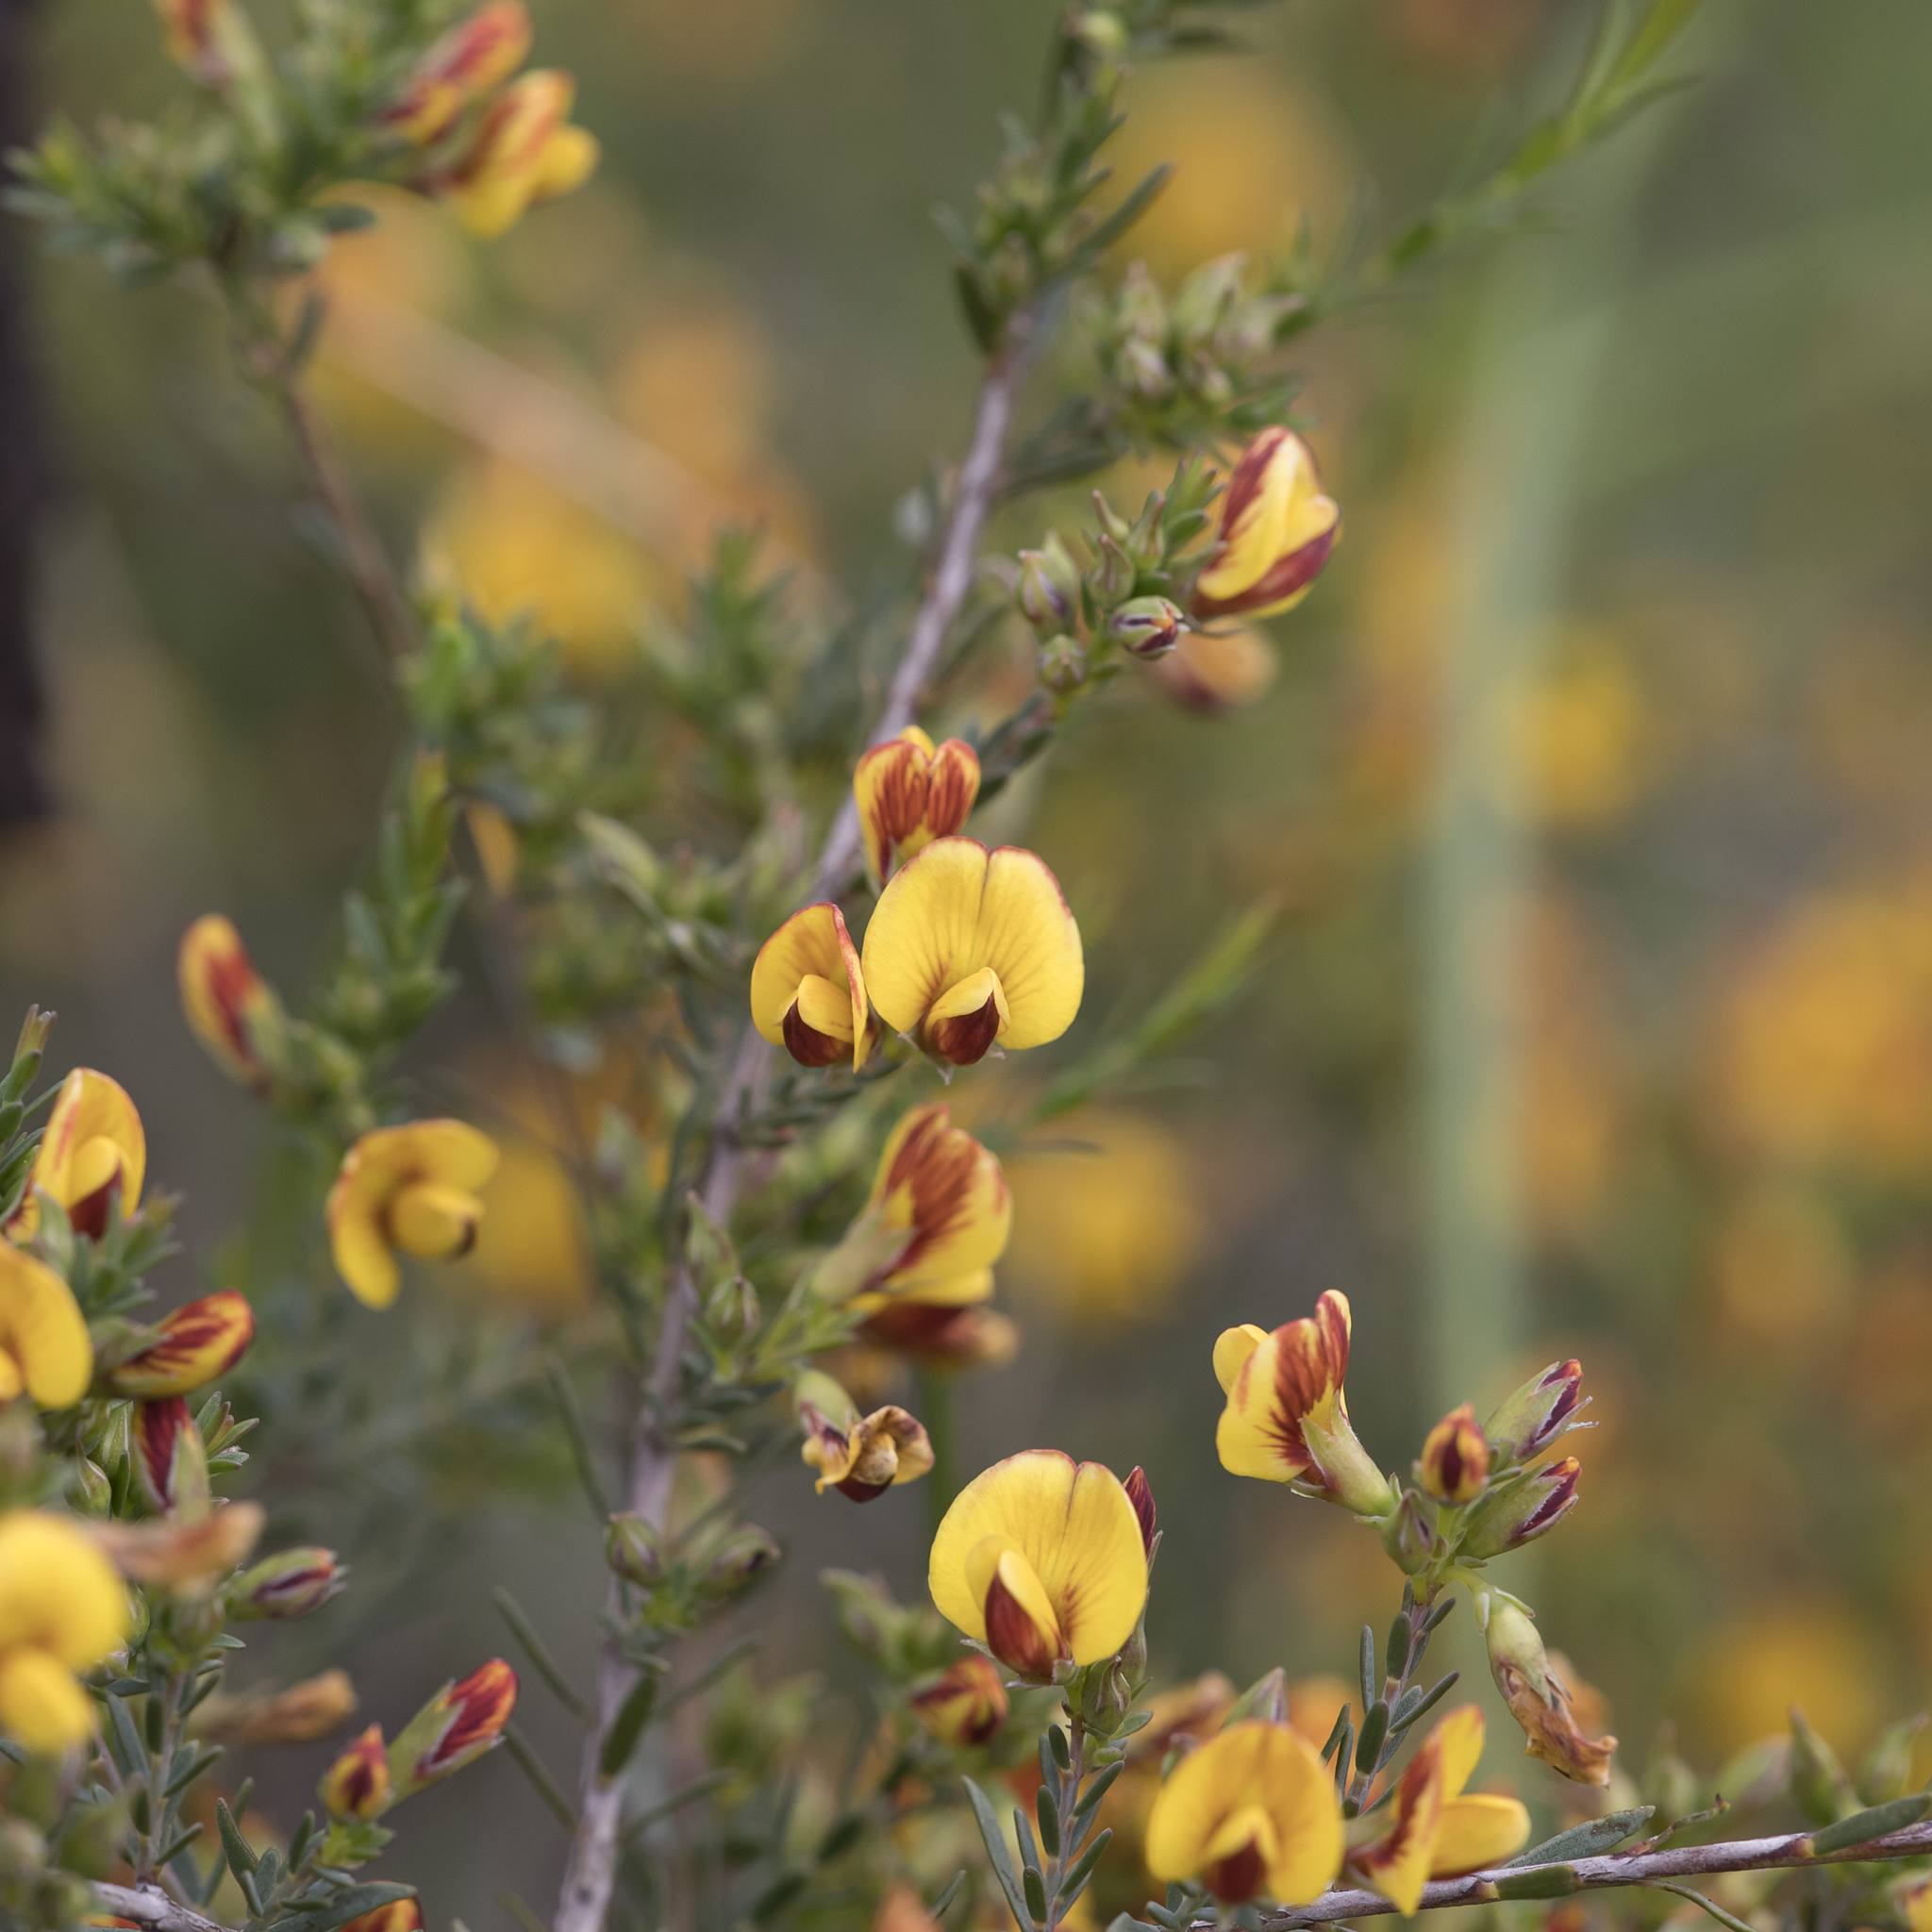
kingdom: Plantae
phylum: Tracheophyta
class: Magnoliopsida
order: Fabales
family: Fabaceae
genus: Eutaxia
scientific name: Eutaxia microphylla
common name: Mallee bush-pea
